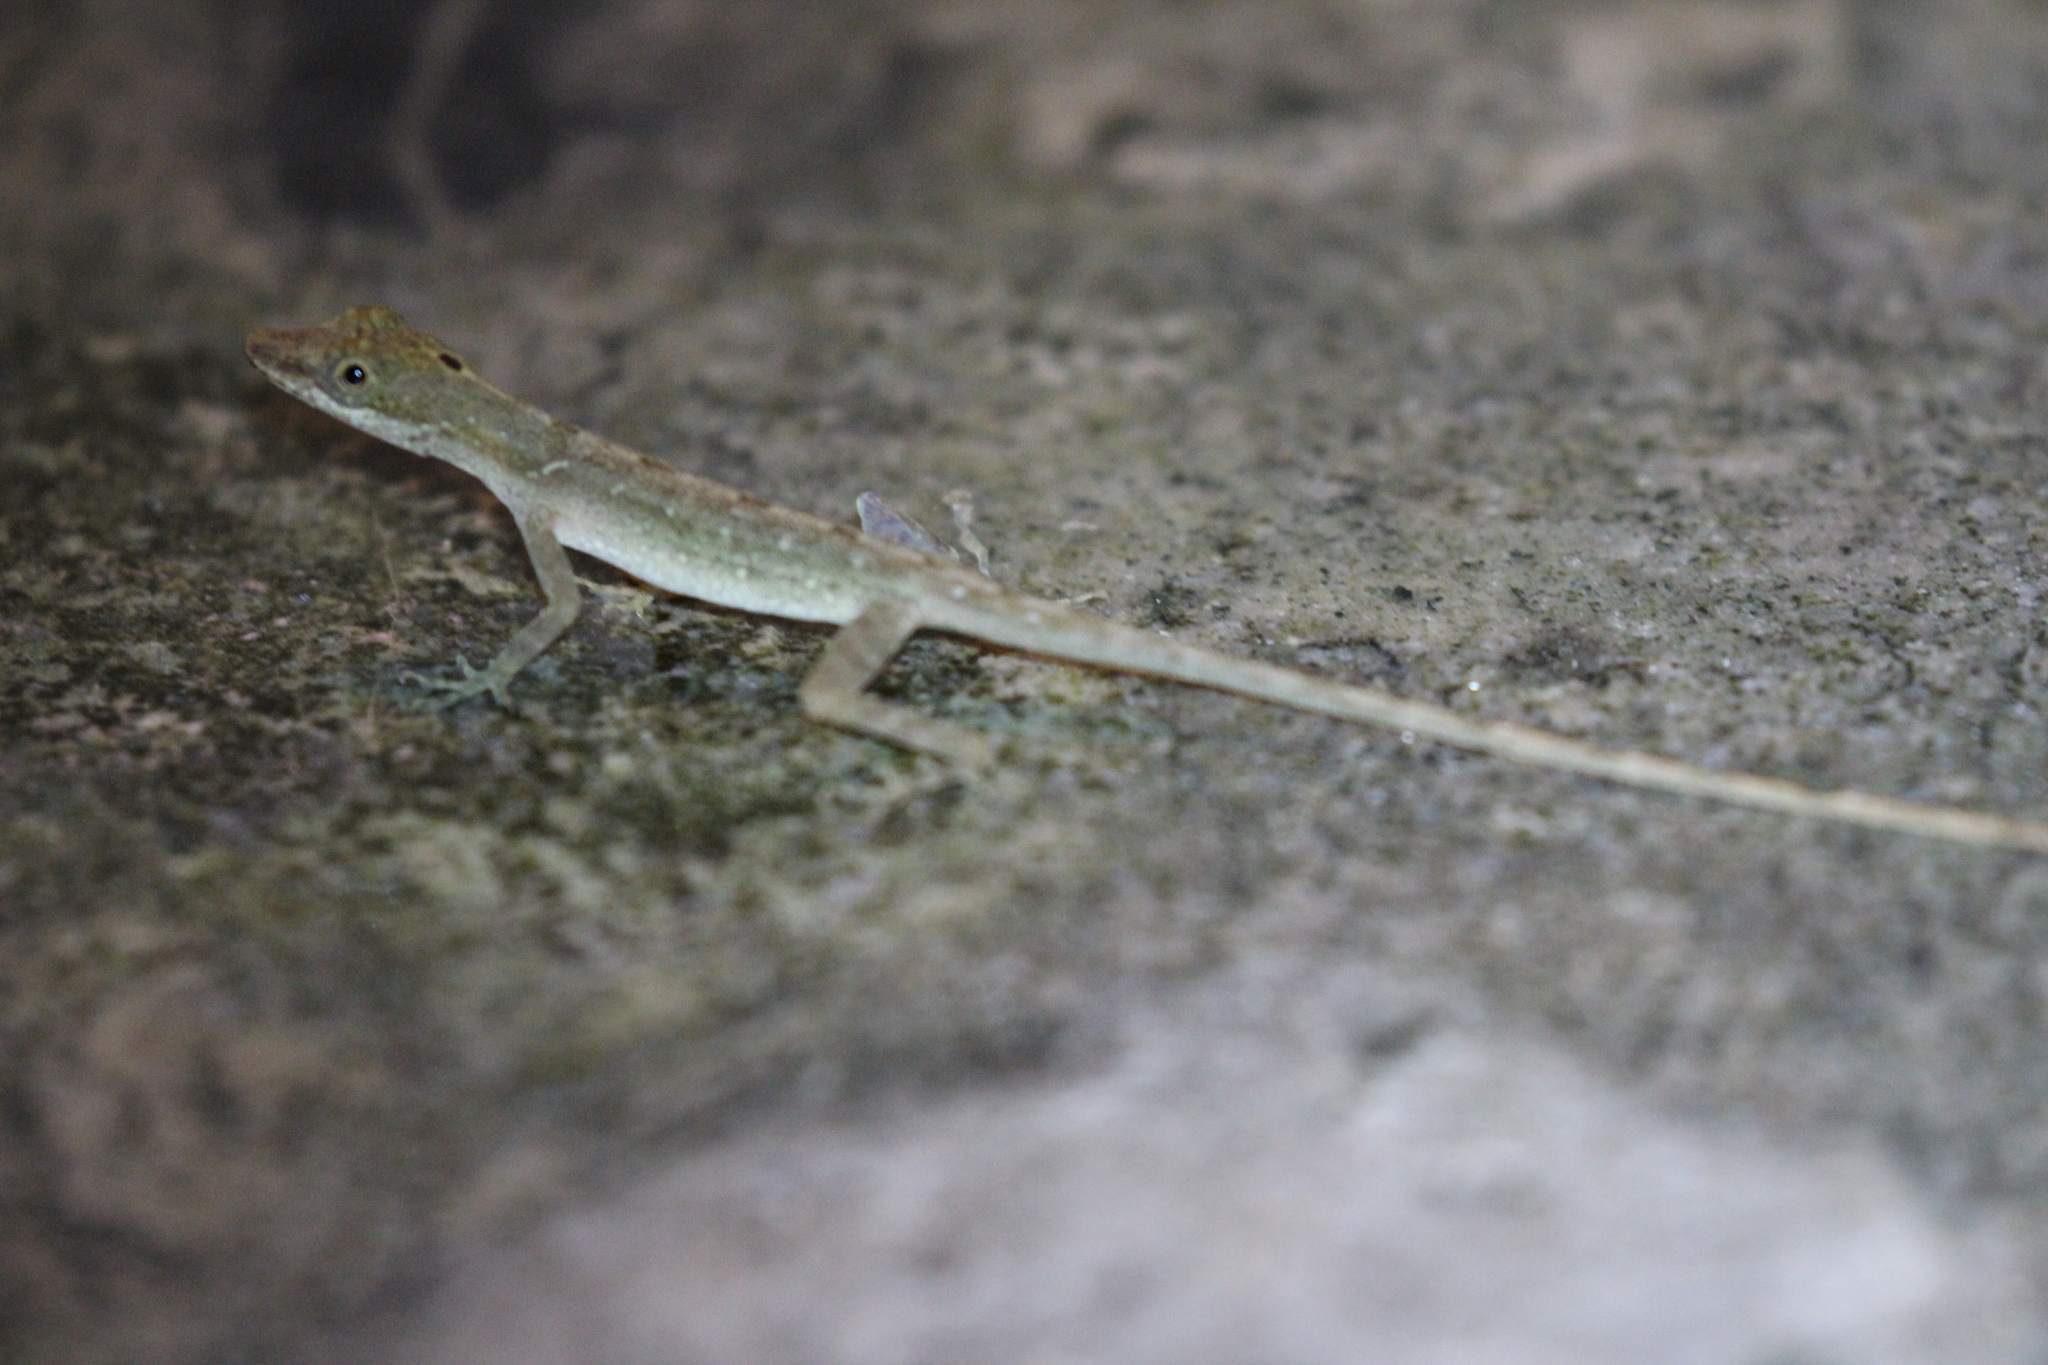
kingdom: Animalia
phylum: Chordata
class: Squamata
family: Dactyloidae
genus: Anolis
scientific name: Anolis limifrons
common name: Border anole
